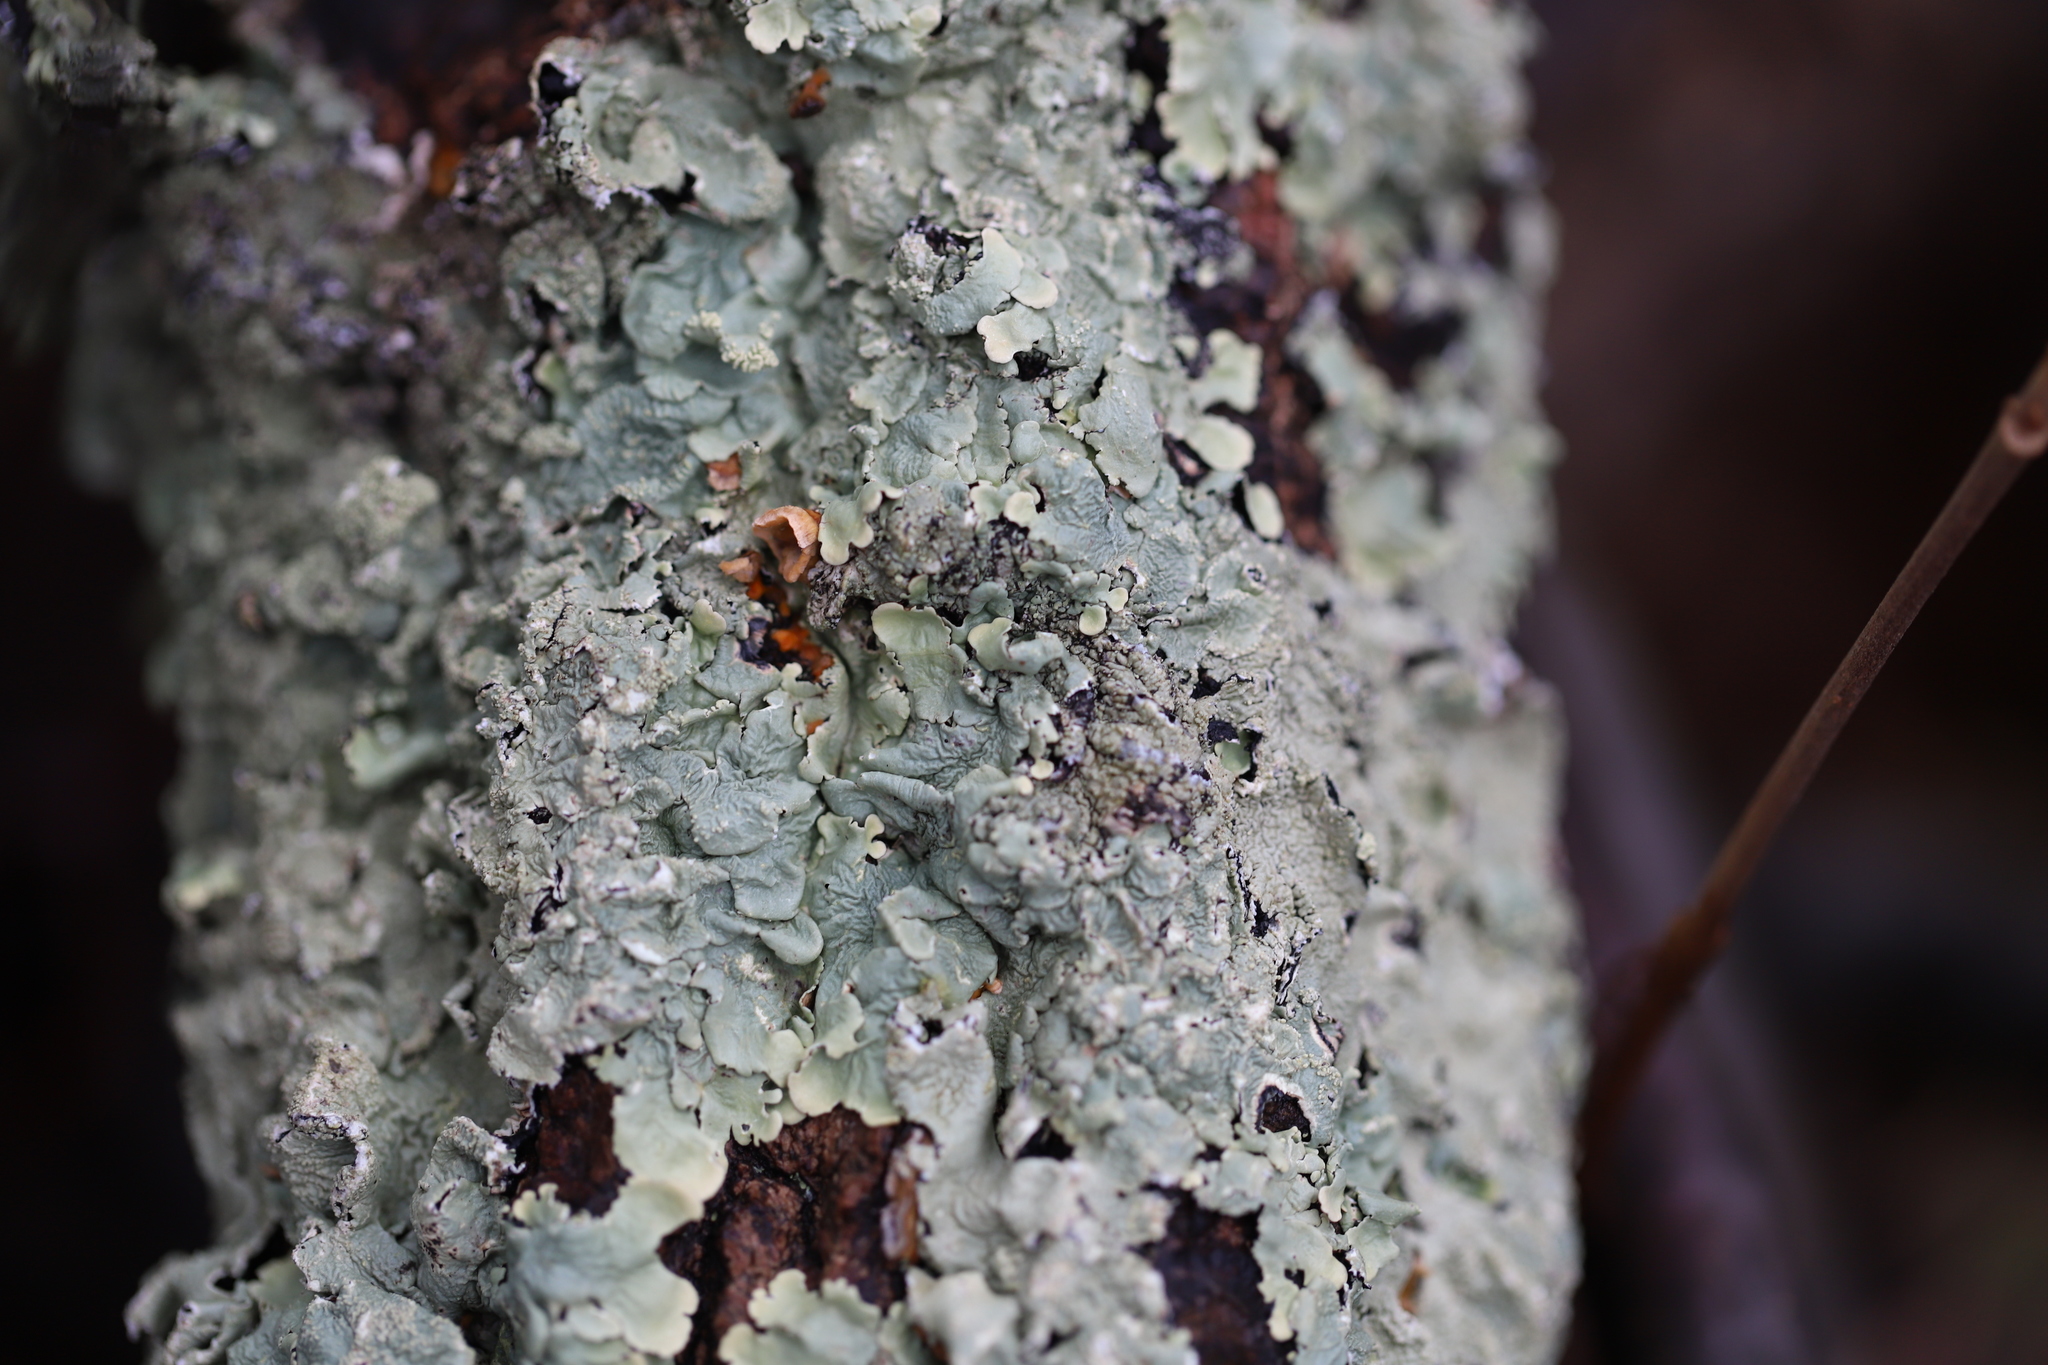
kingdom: Fungi
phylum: Ascomycota
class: Lecanoromycetes
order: Lecanorales
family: Parmeliaceae
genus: Flavoparmelia
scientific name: Flavoparmelia caperata
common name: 40-mile per hour lichen
